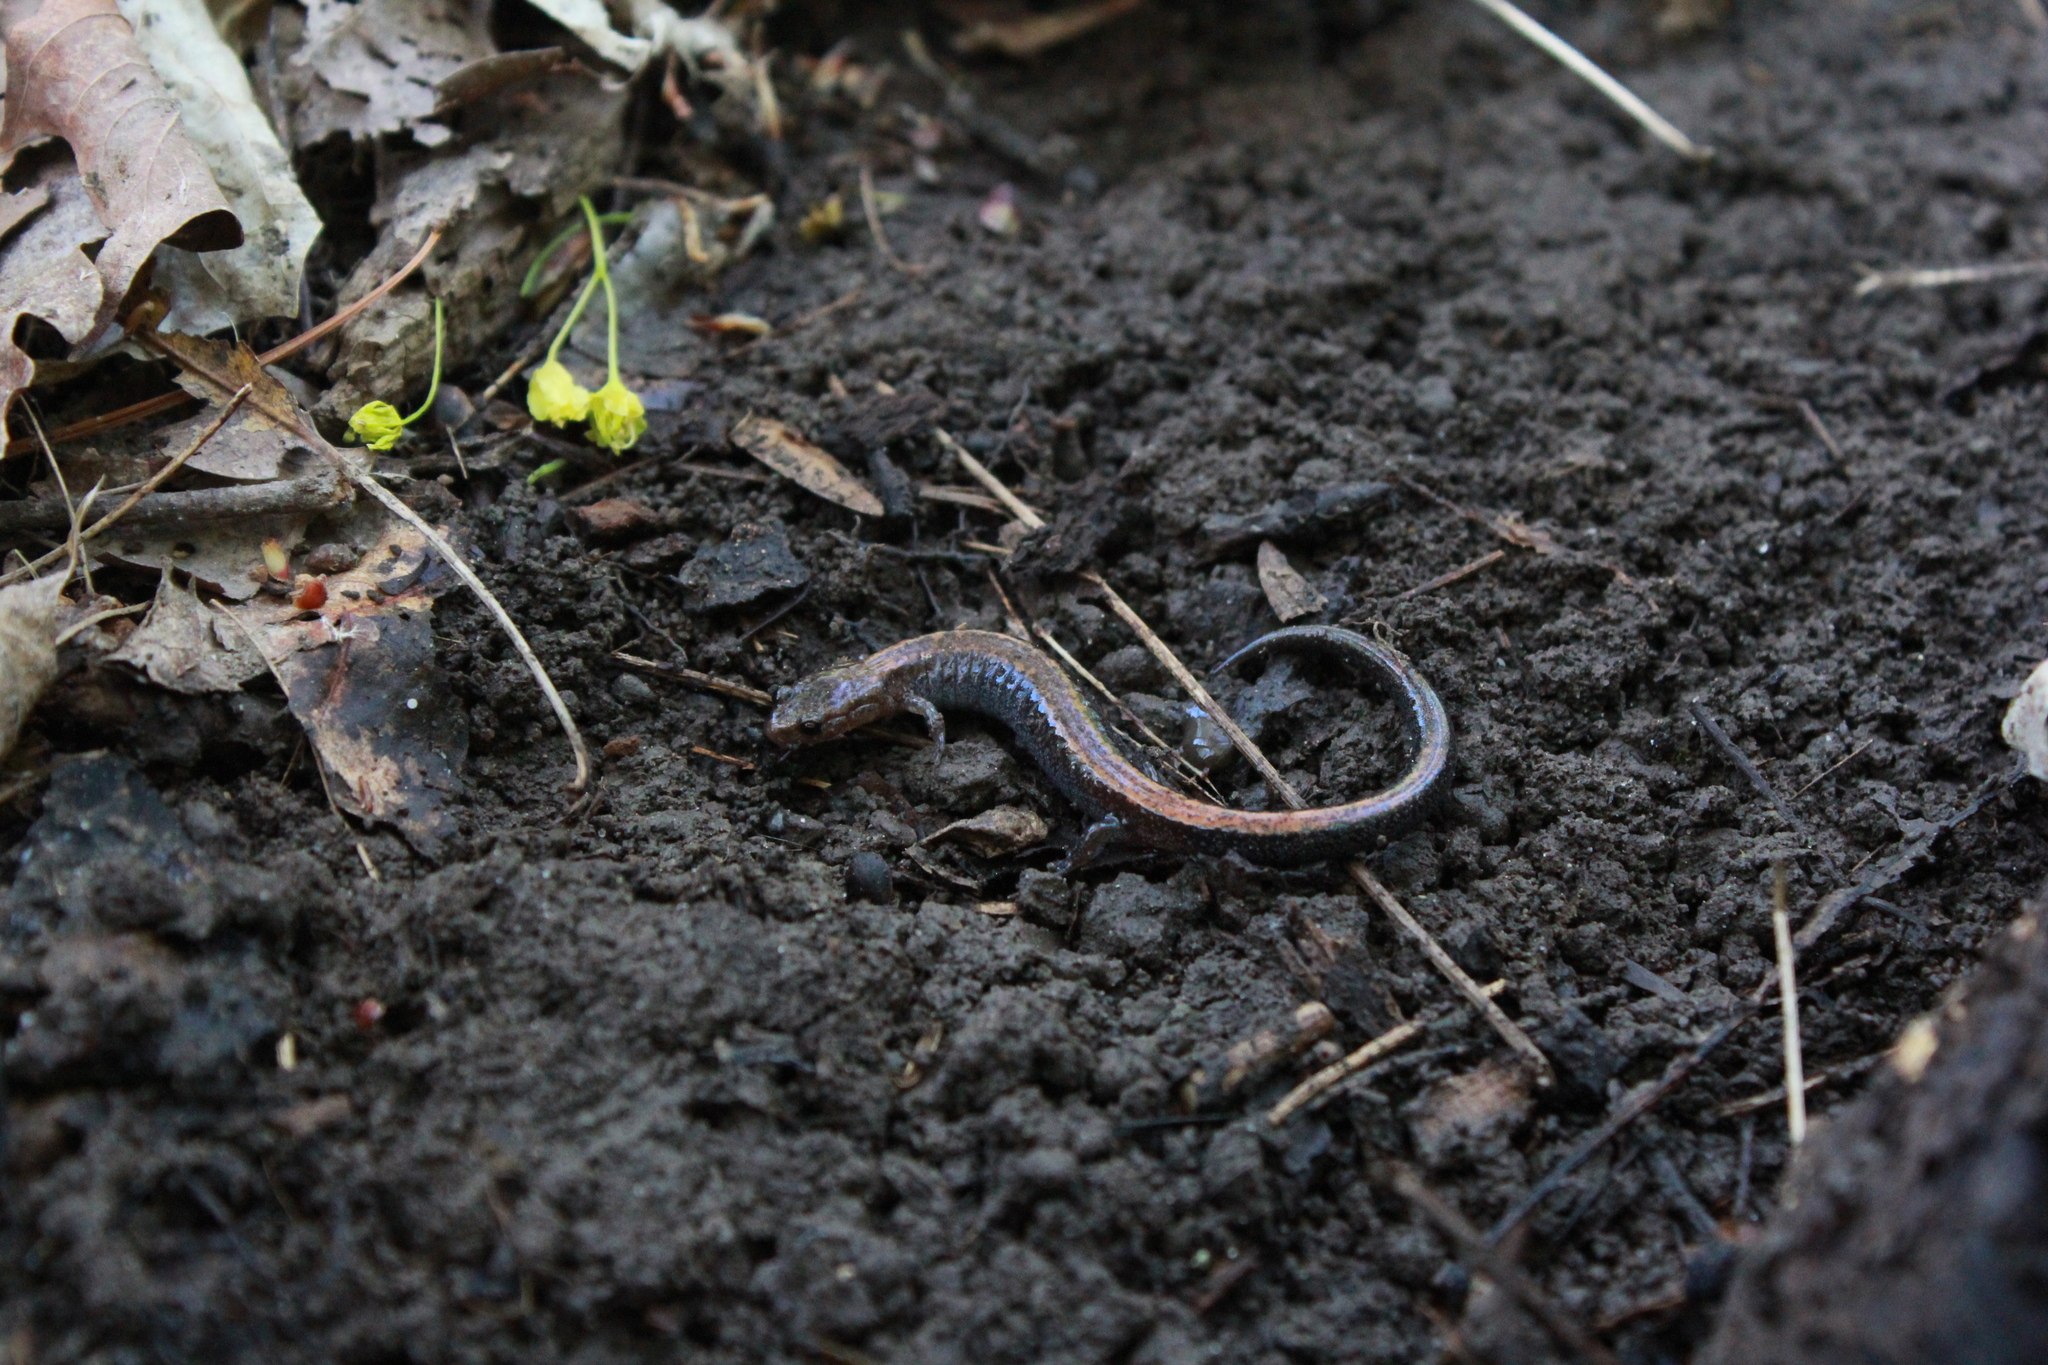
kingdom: Animalia
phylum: Chordata
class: Amphibia
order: Caudata
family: Plethodontidae
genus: Plethodon
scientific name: Plethodon cinereus
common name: Redback salamander
